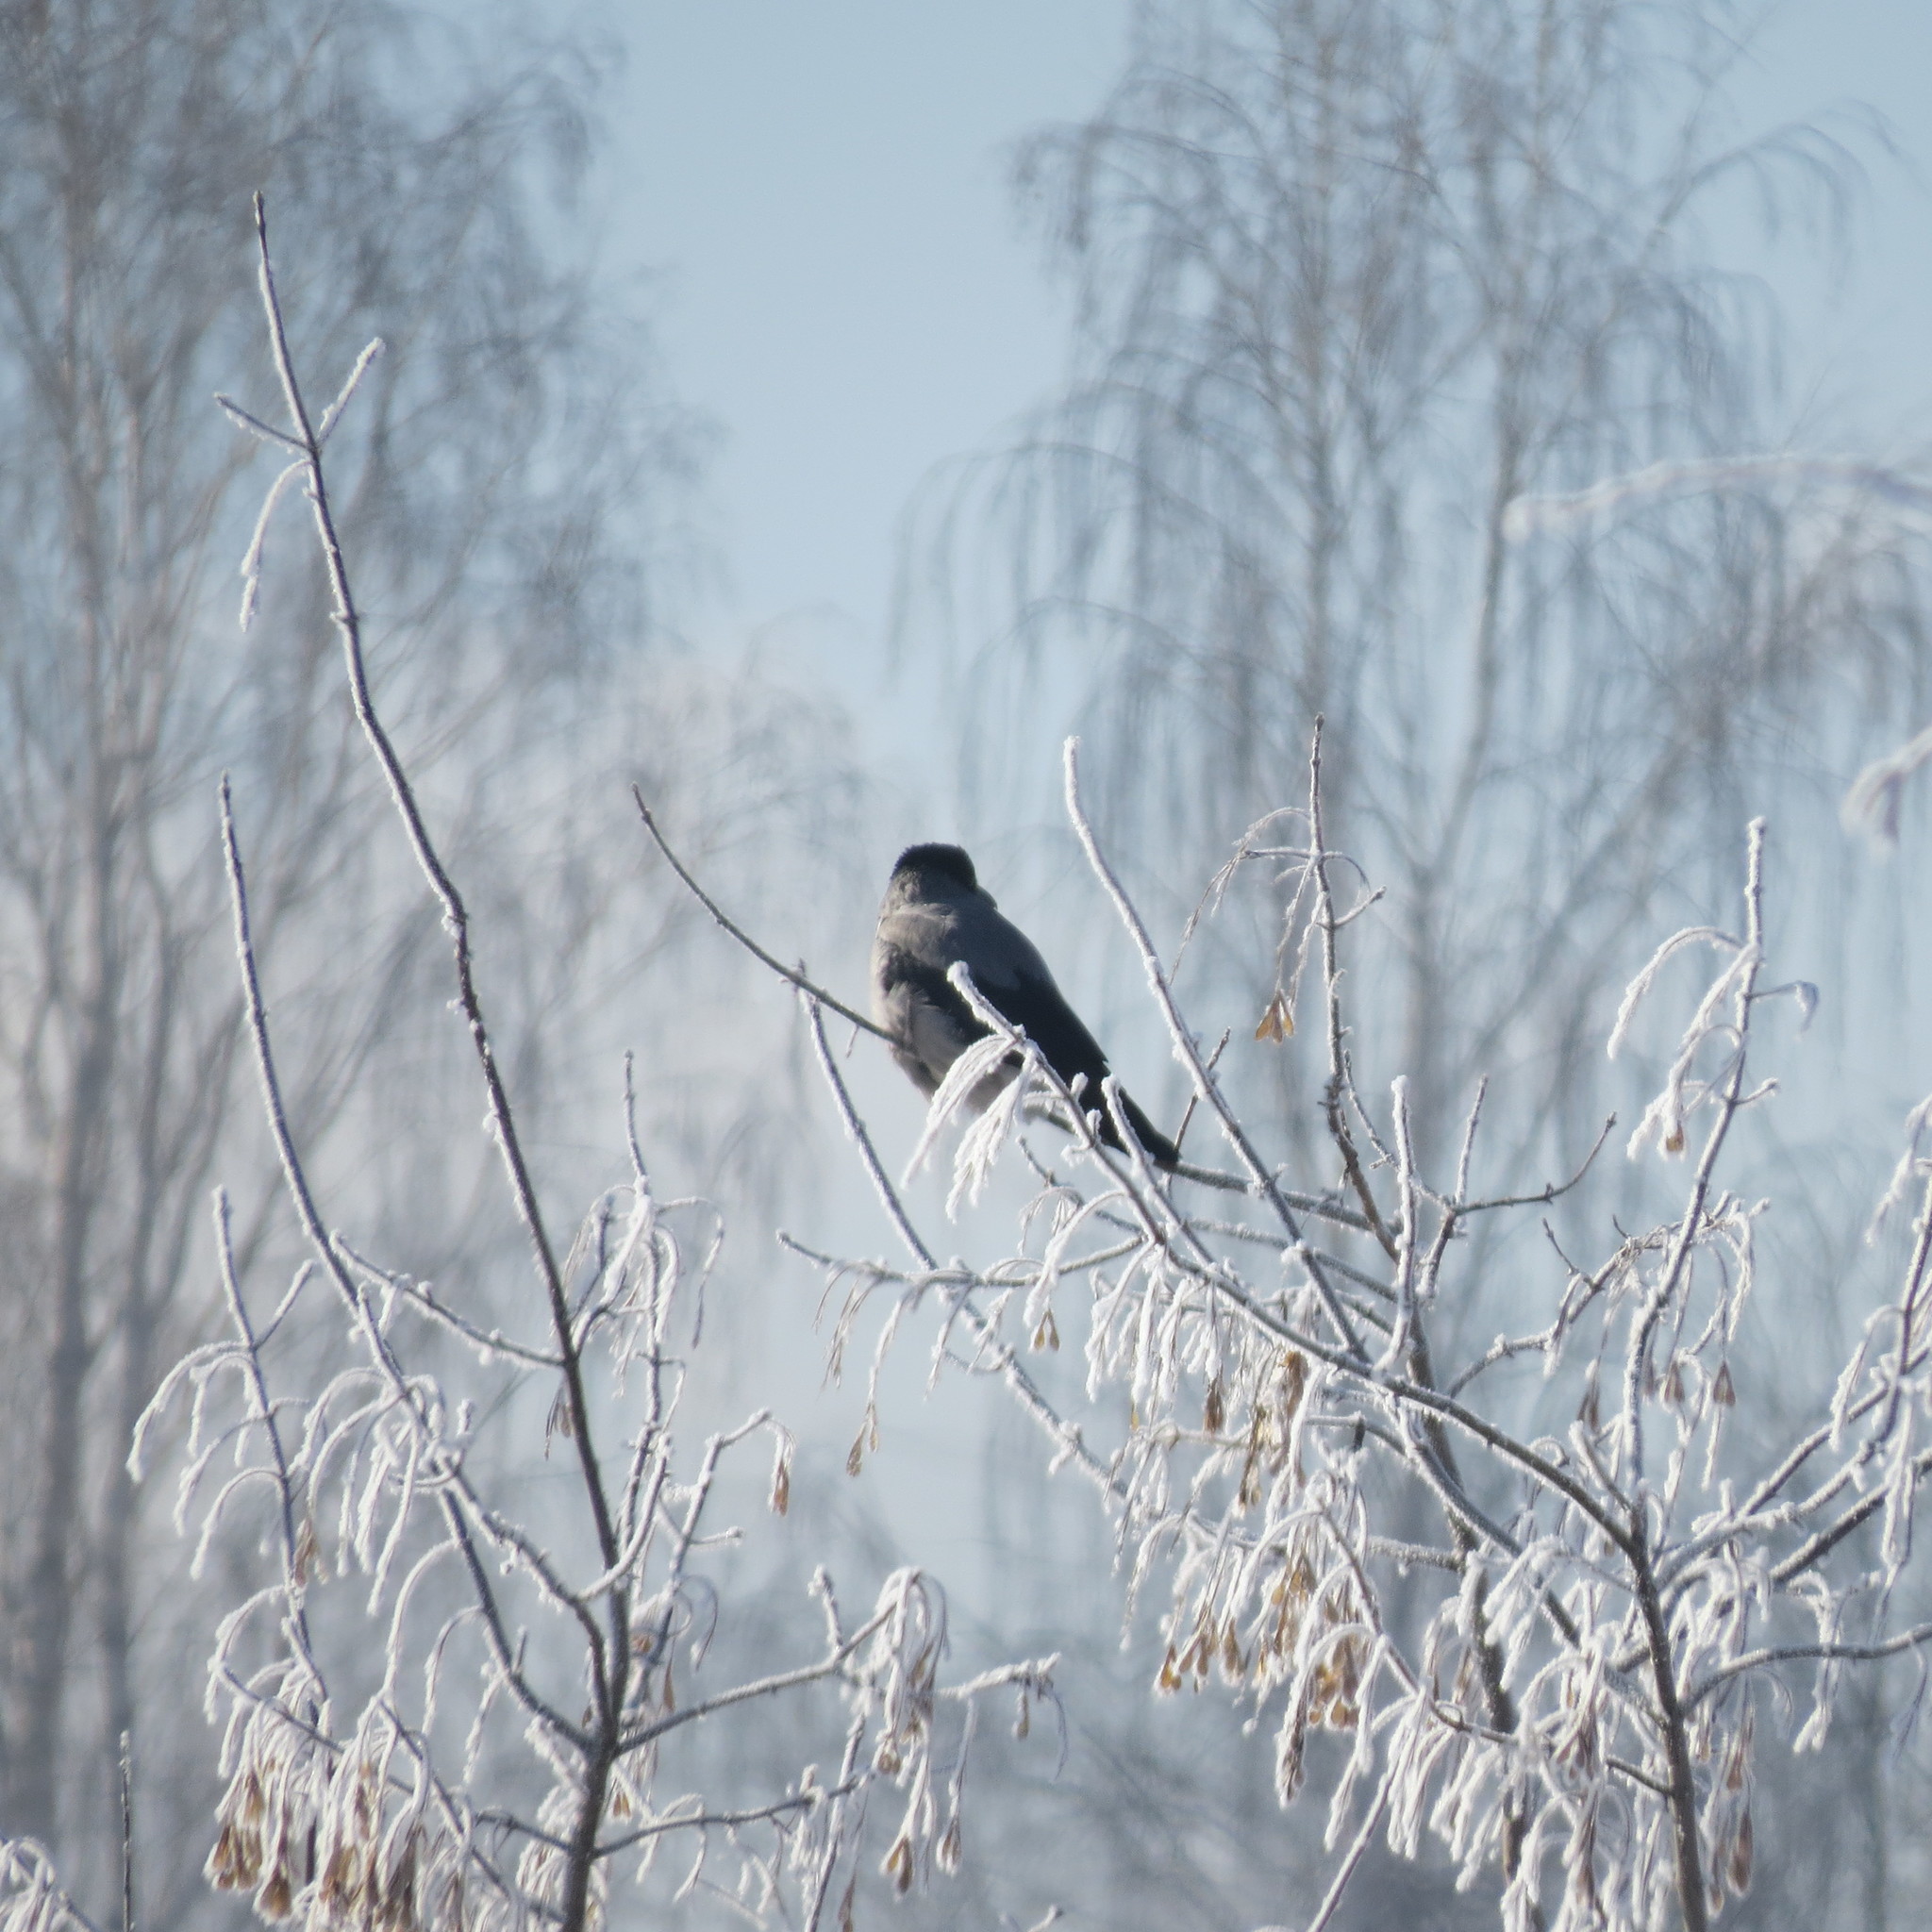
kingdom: Animalia
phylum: Chordata
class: Aves
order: Passeriformes
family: Corvidae
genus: Corvus
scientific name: Corvus cornix
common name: Hooded crow
